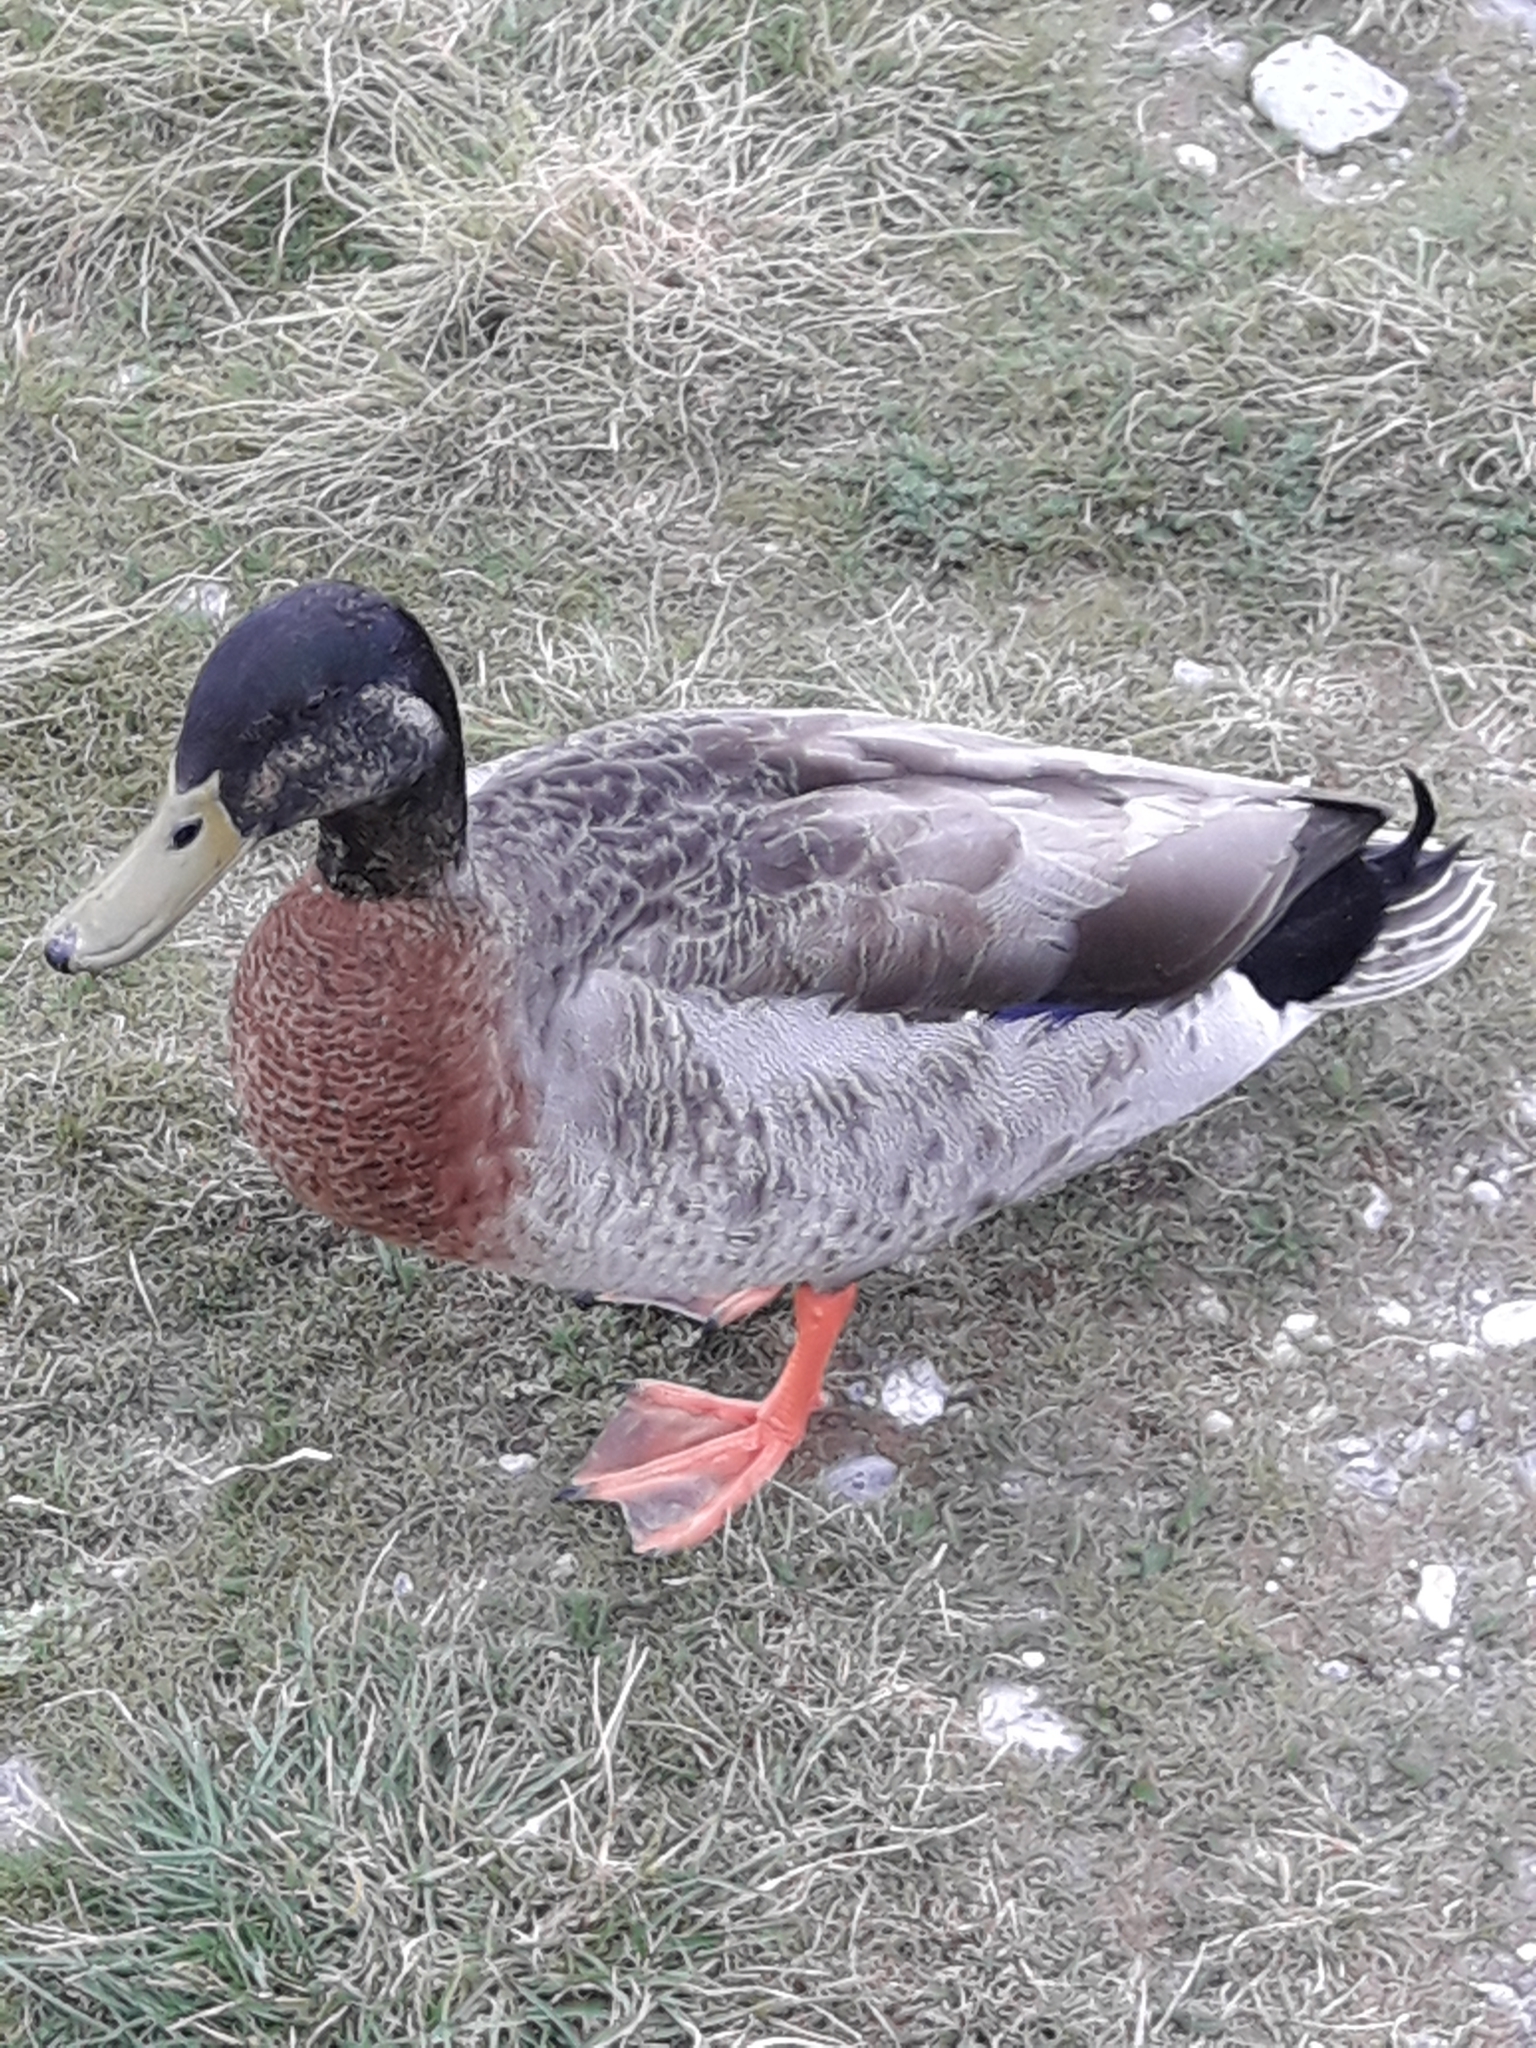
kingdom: Animalia
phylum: Chordata
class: Aves
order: Anseriformes
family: Anatidae
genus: Anas
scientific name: Anas platyrhynchos
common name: Mallard
